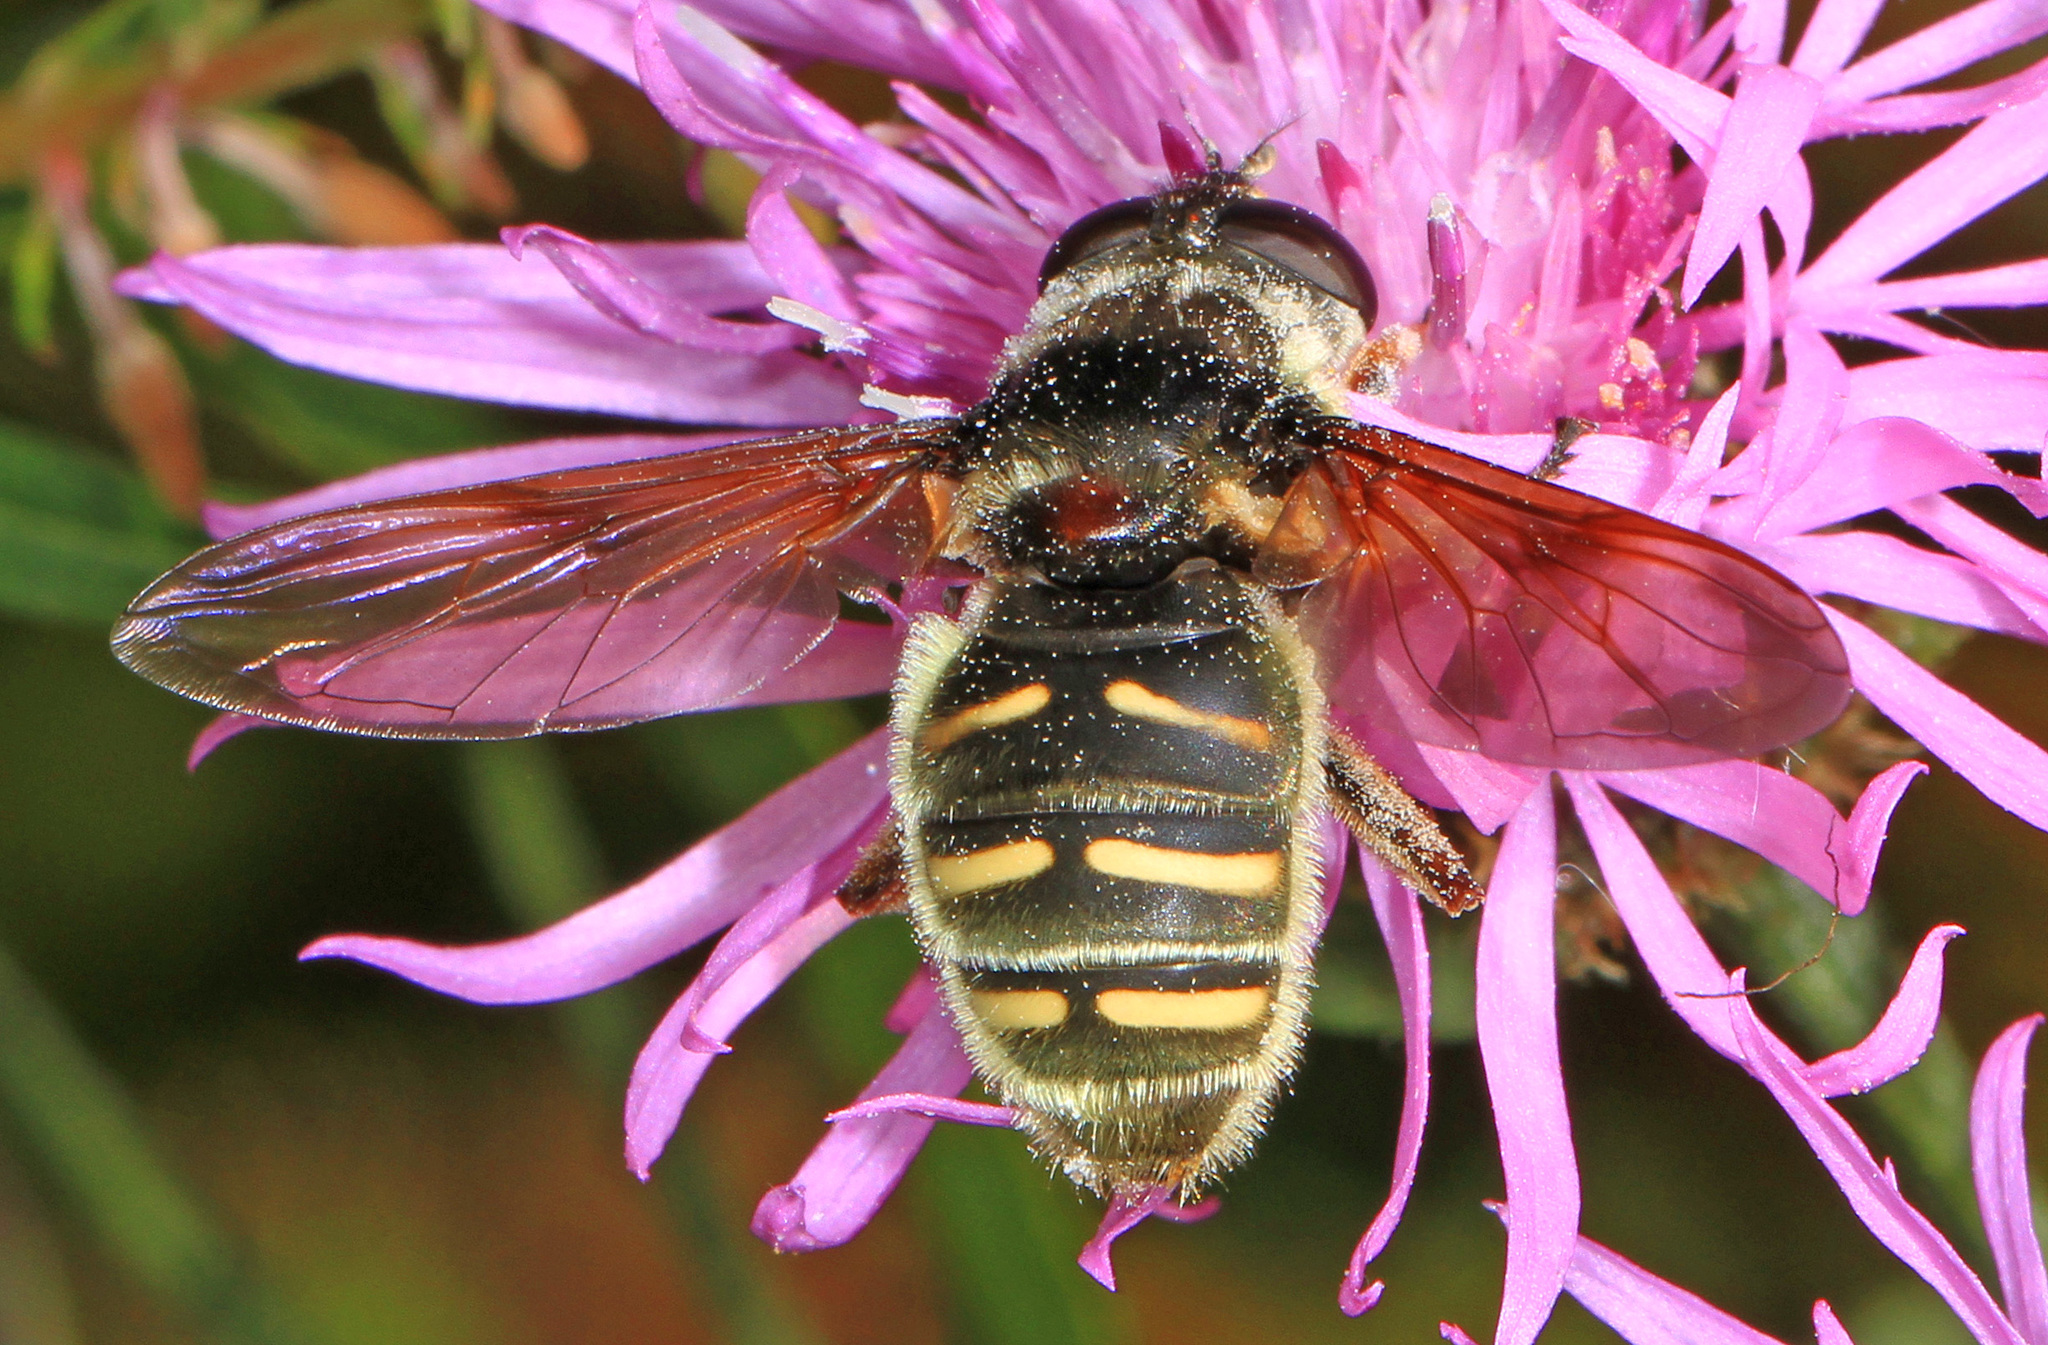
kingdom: Animalia
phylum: Arthropoda
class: Insecta
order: Diptera
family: Syrphidae
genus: Sericomyia
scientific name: Sericomyia chalcopyga
